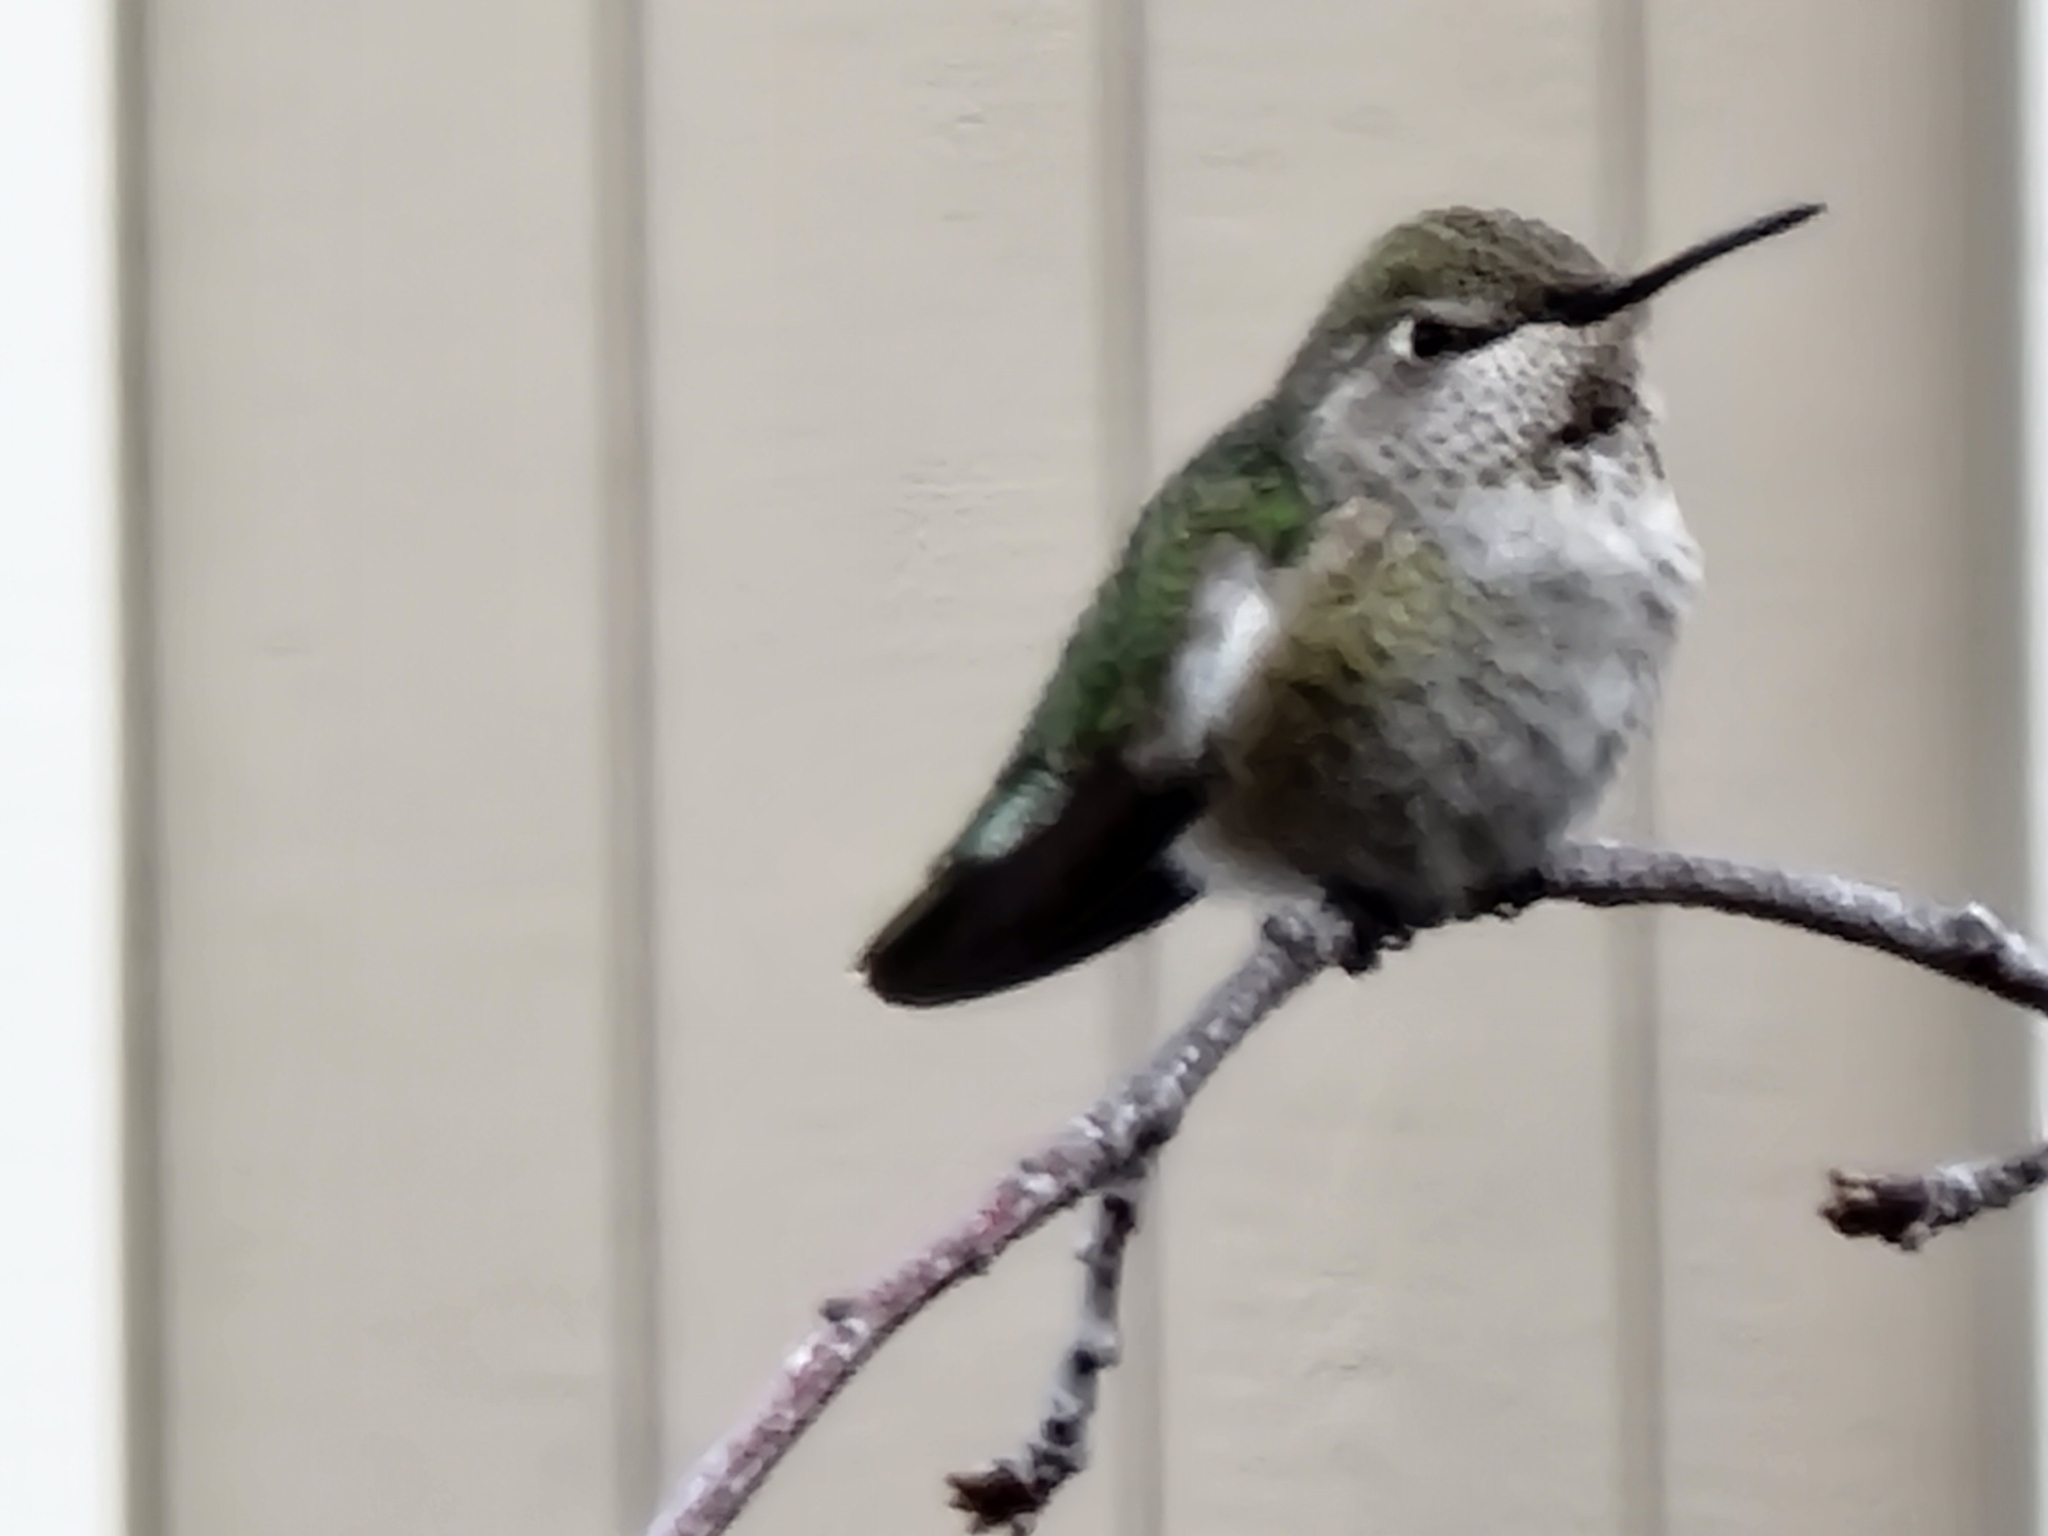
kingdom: Animalia
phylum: Chordata
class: Aves
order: Apodiformes
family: Trochilidae
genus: Calypte
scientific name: Calypte anna
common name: Anna's hummingbird
